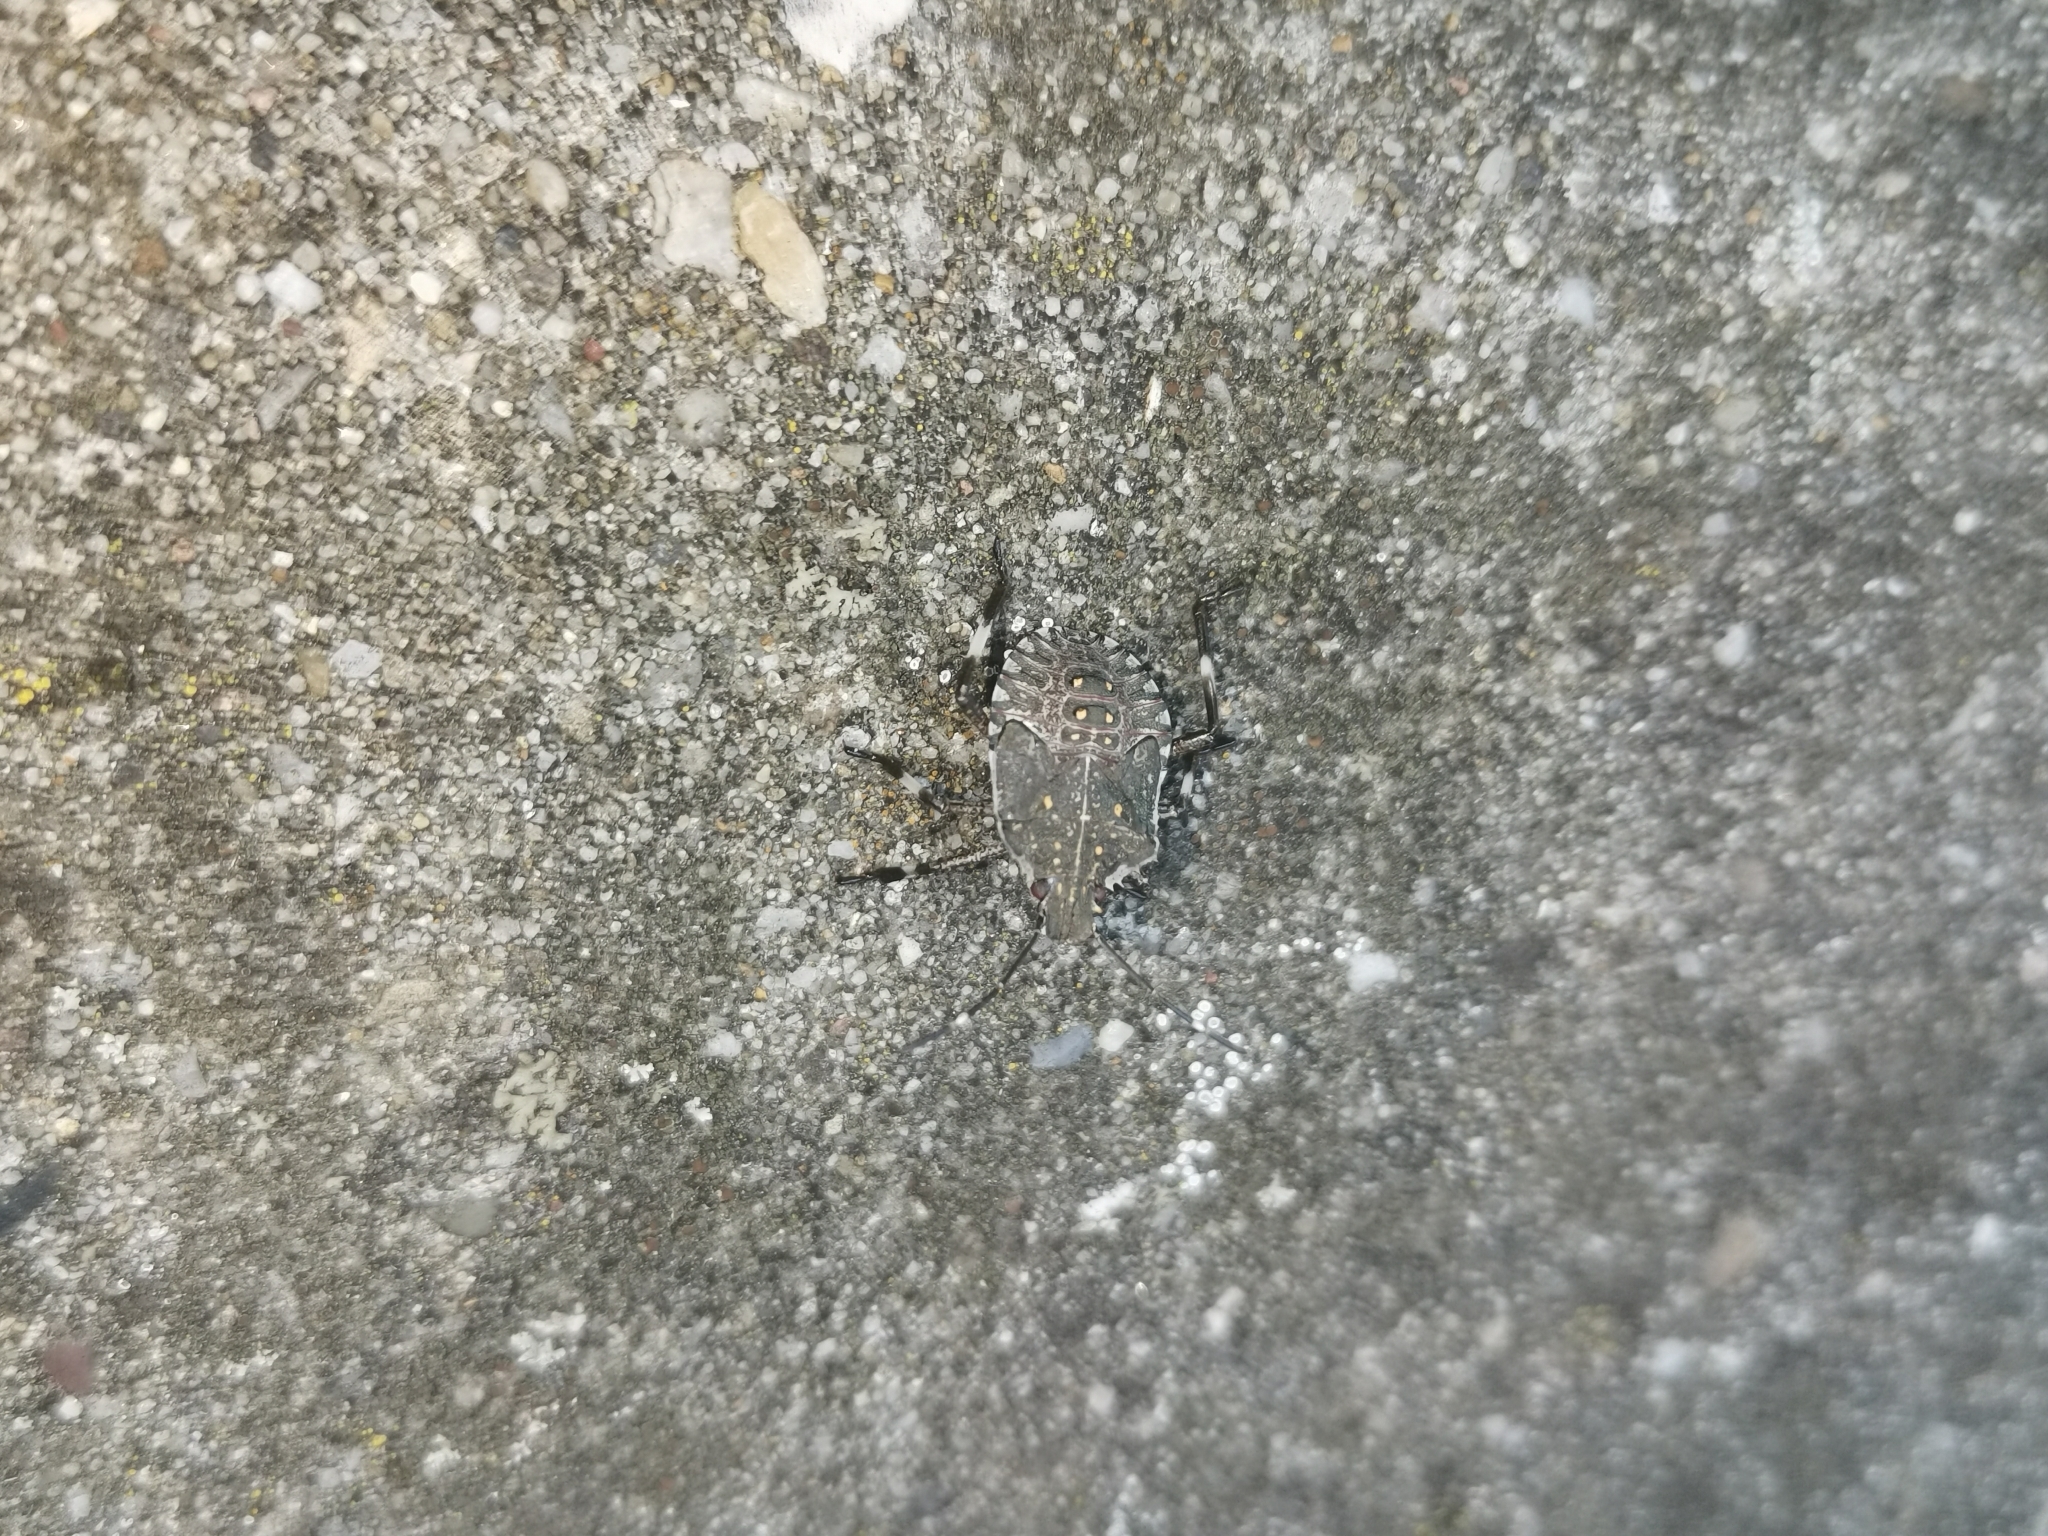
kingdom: Animalia
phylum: Arthropoda
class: Insecta
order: Hemiptera
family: Pentatomidae
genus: Halyomorpha
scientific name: Halyomorpha halys
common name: Brown marmorated stink bug
